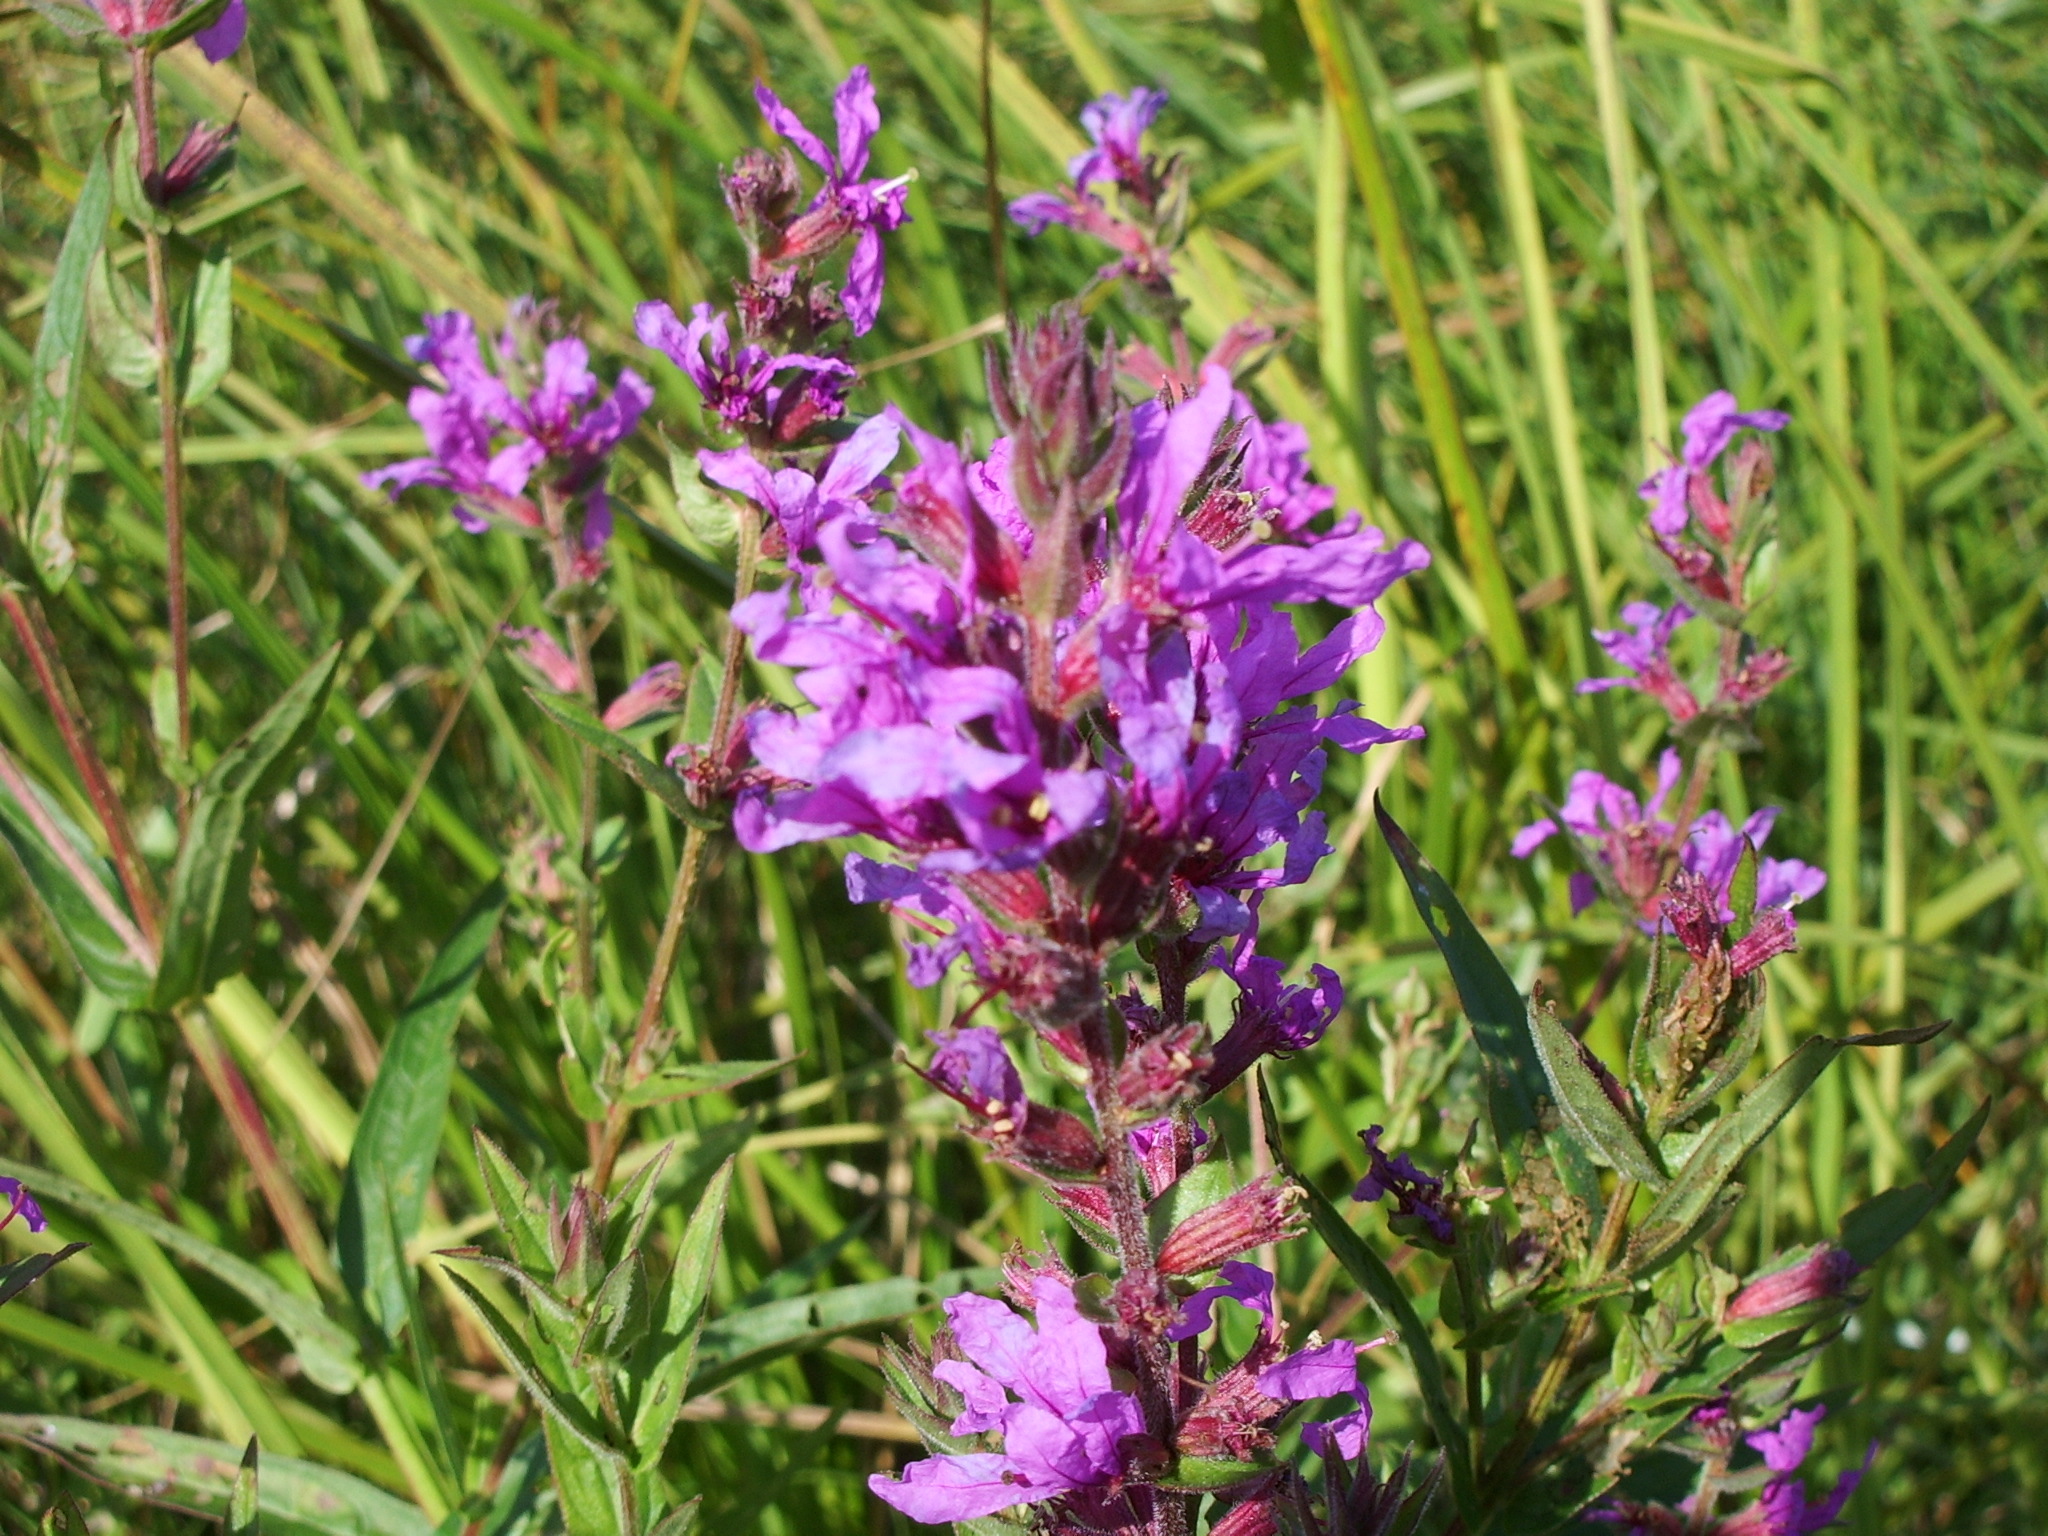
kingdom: Plantae
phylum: Tracheophyta
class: Magnoliopsida
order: Myrtales
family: Lythraceae
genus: Lythrum
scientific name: Lythrum salicaria
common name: Purple loosestrife
